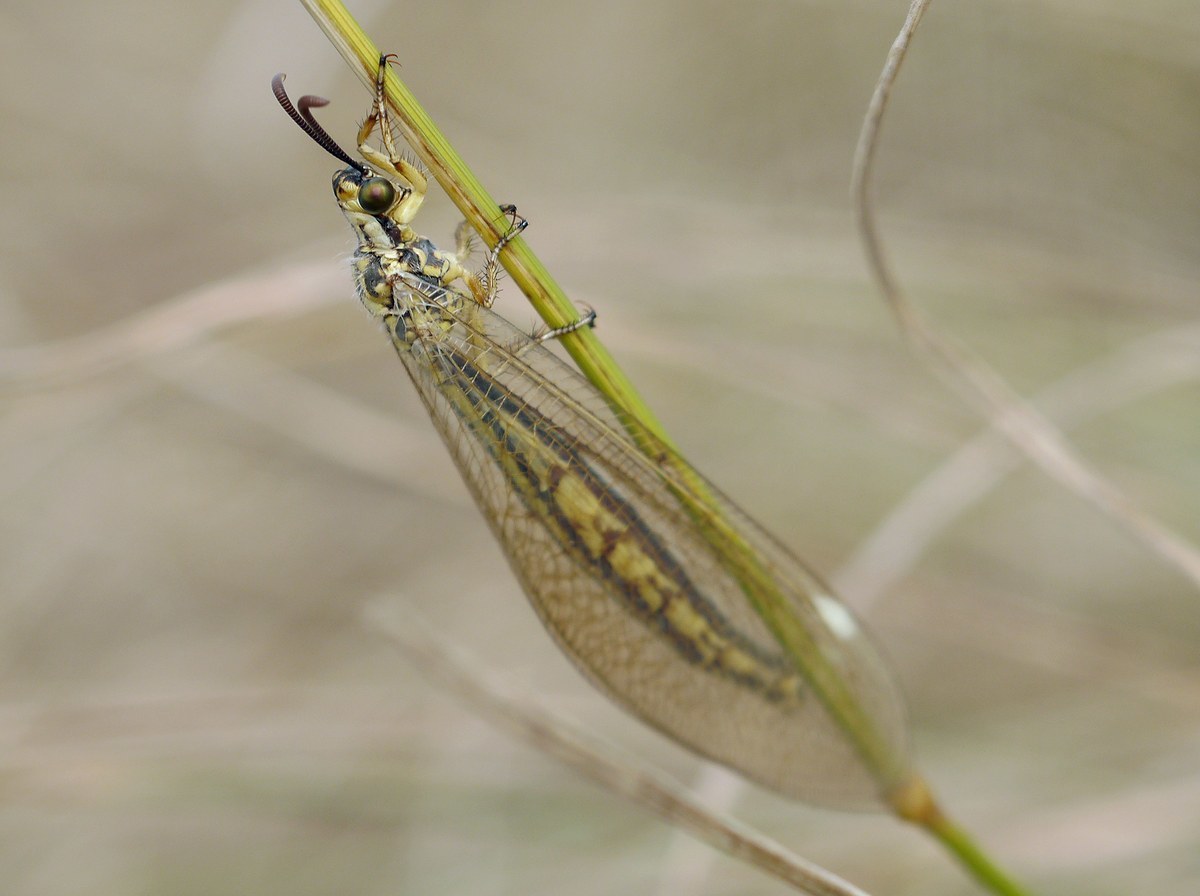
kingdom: Animalia
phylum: Arthropoda
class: Insecta
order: Neuroptera
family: Myrmeleontidae
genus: Myrmecaelurus
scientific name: Myrmecaelurus trigrammus
